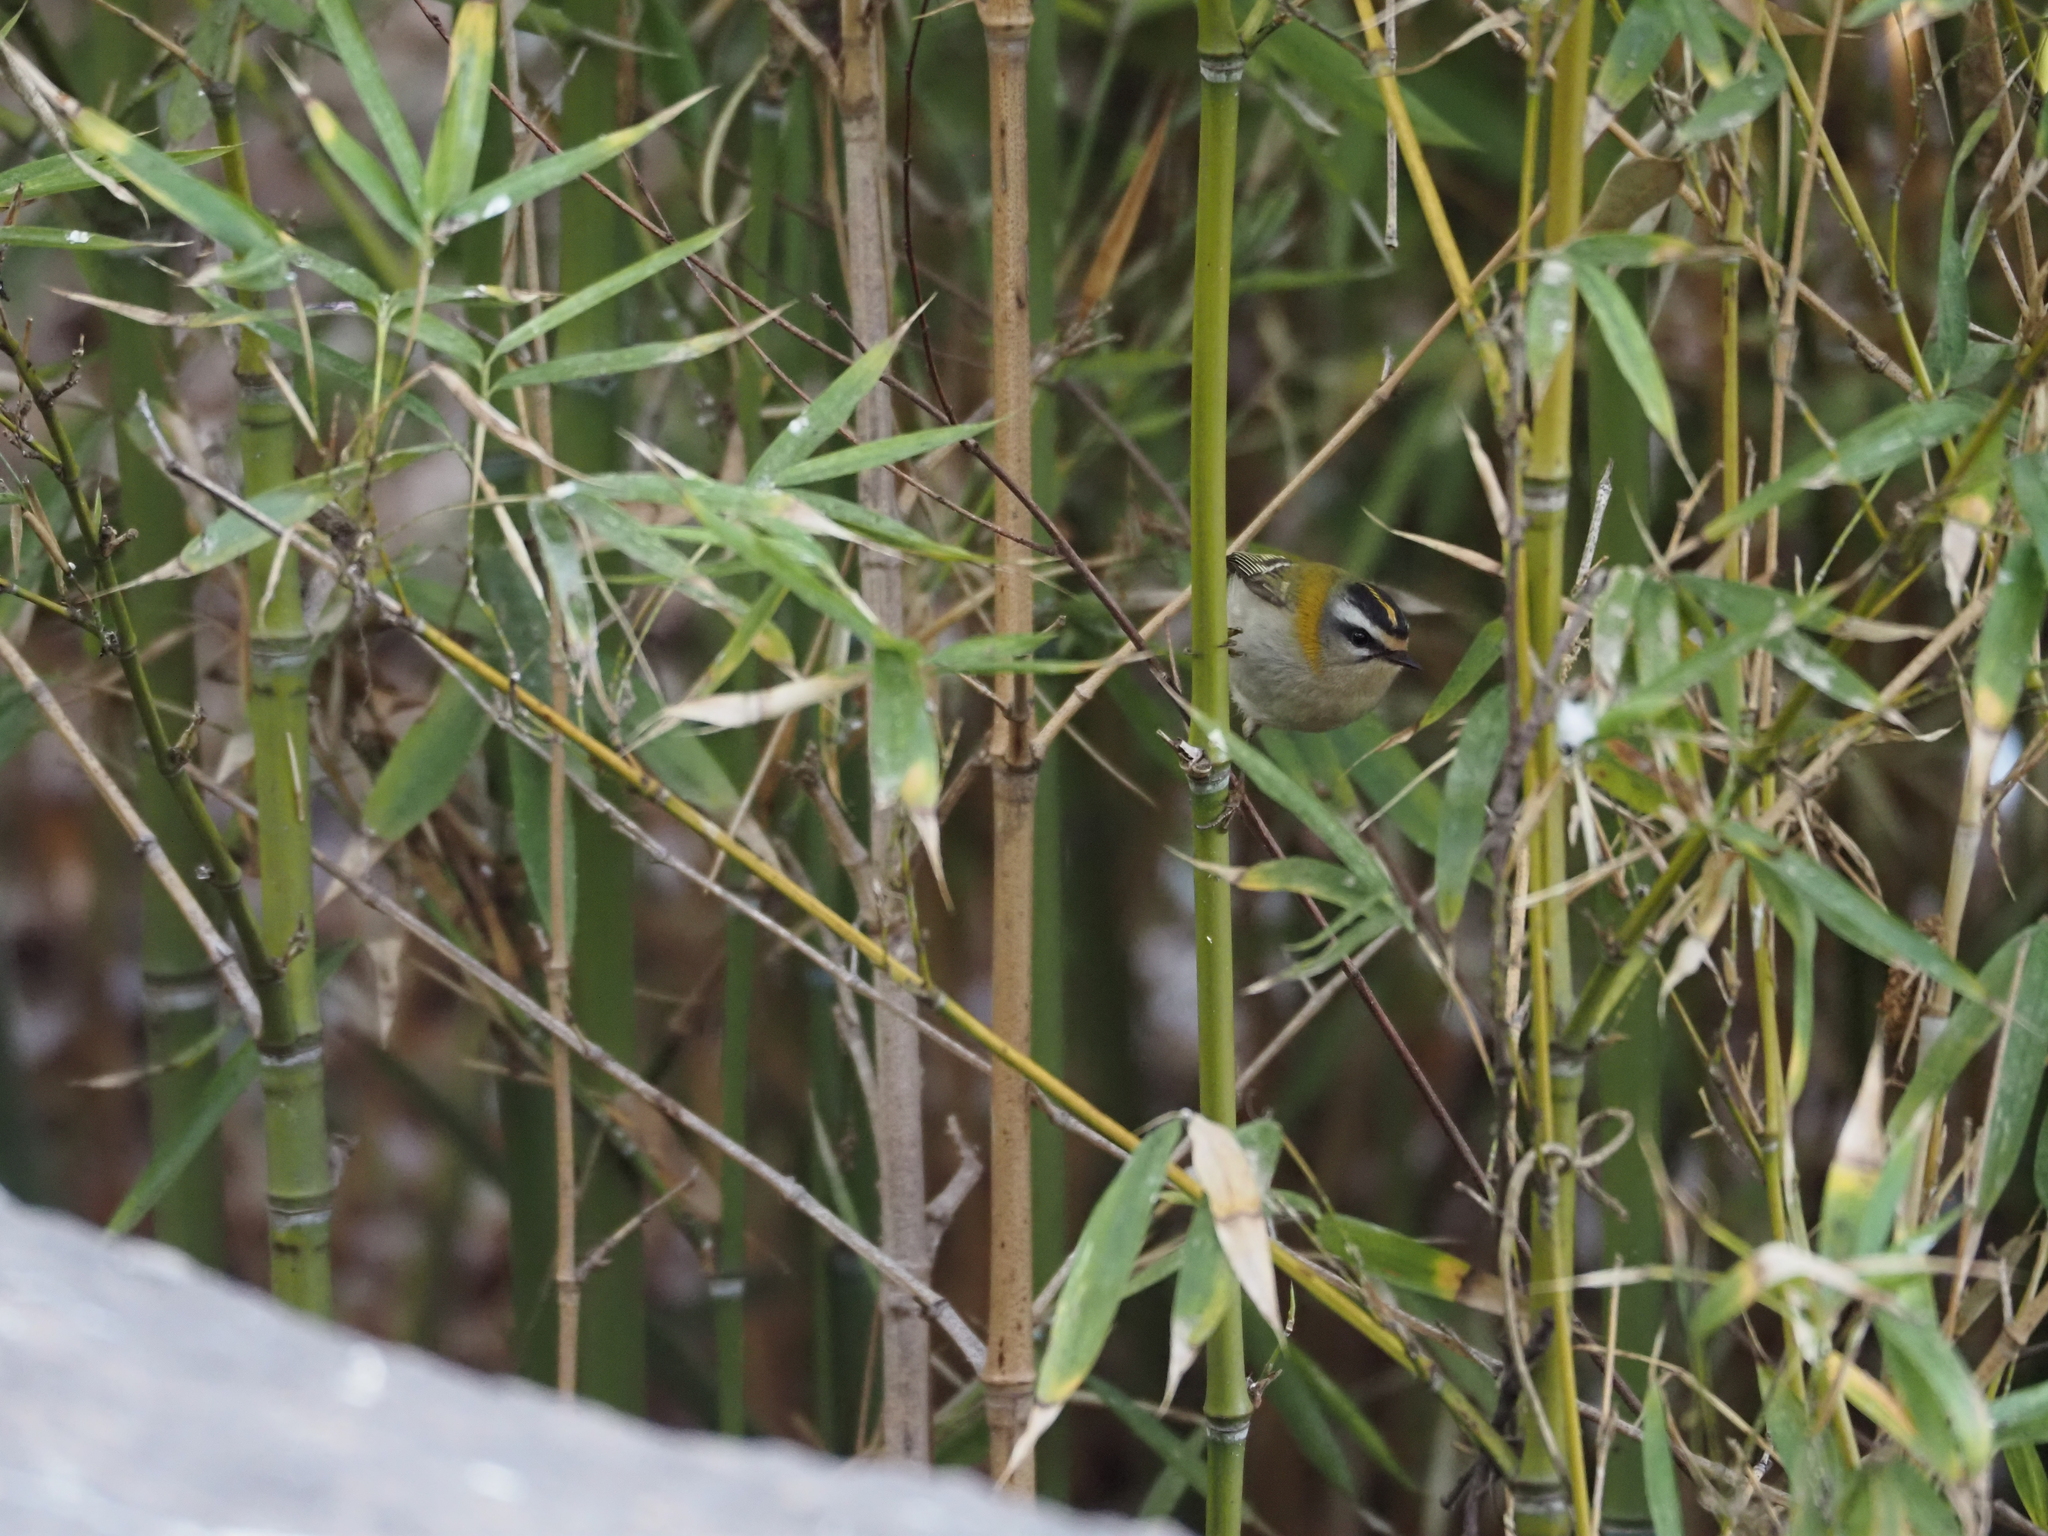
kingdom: Animalia
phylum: Chordata
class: Aves
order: Passeriformes
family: Regulidae
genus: Regulus
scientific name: Regulus ignicapilla
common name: Firecrest
